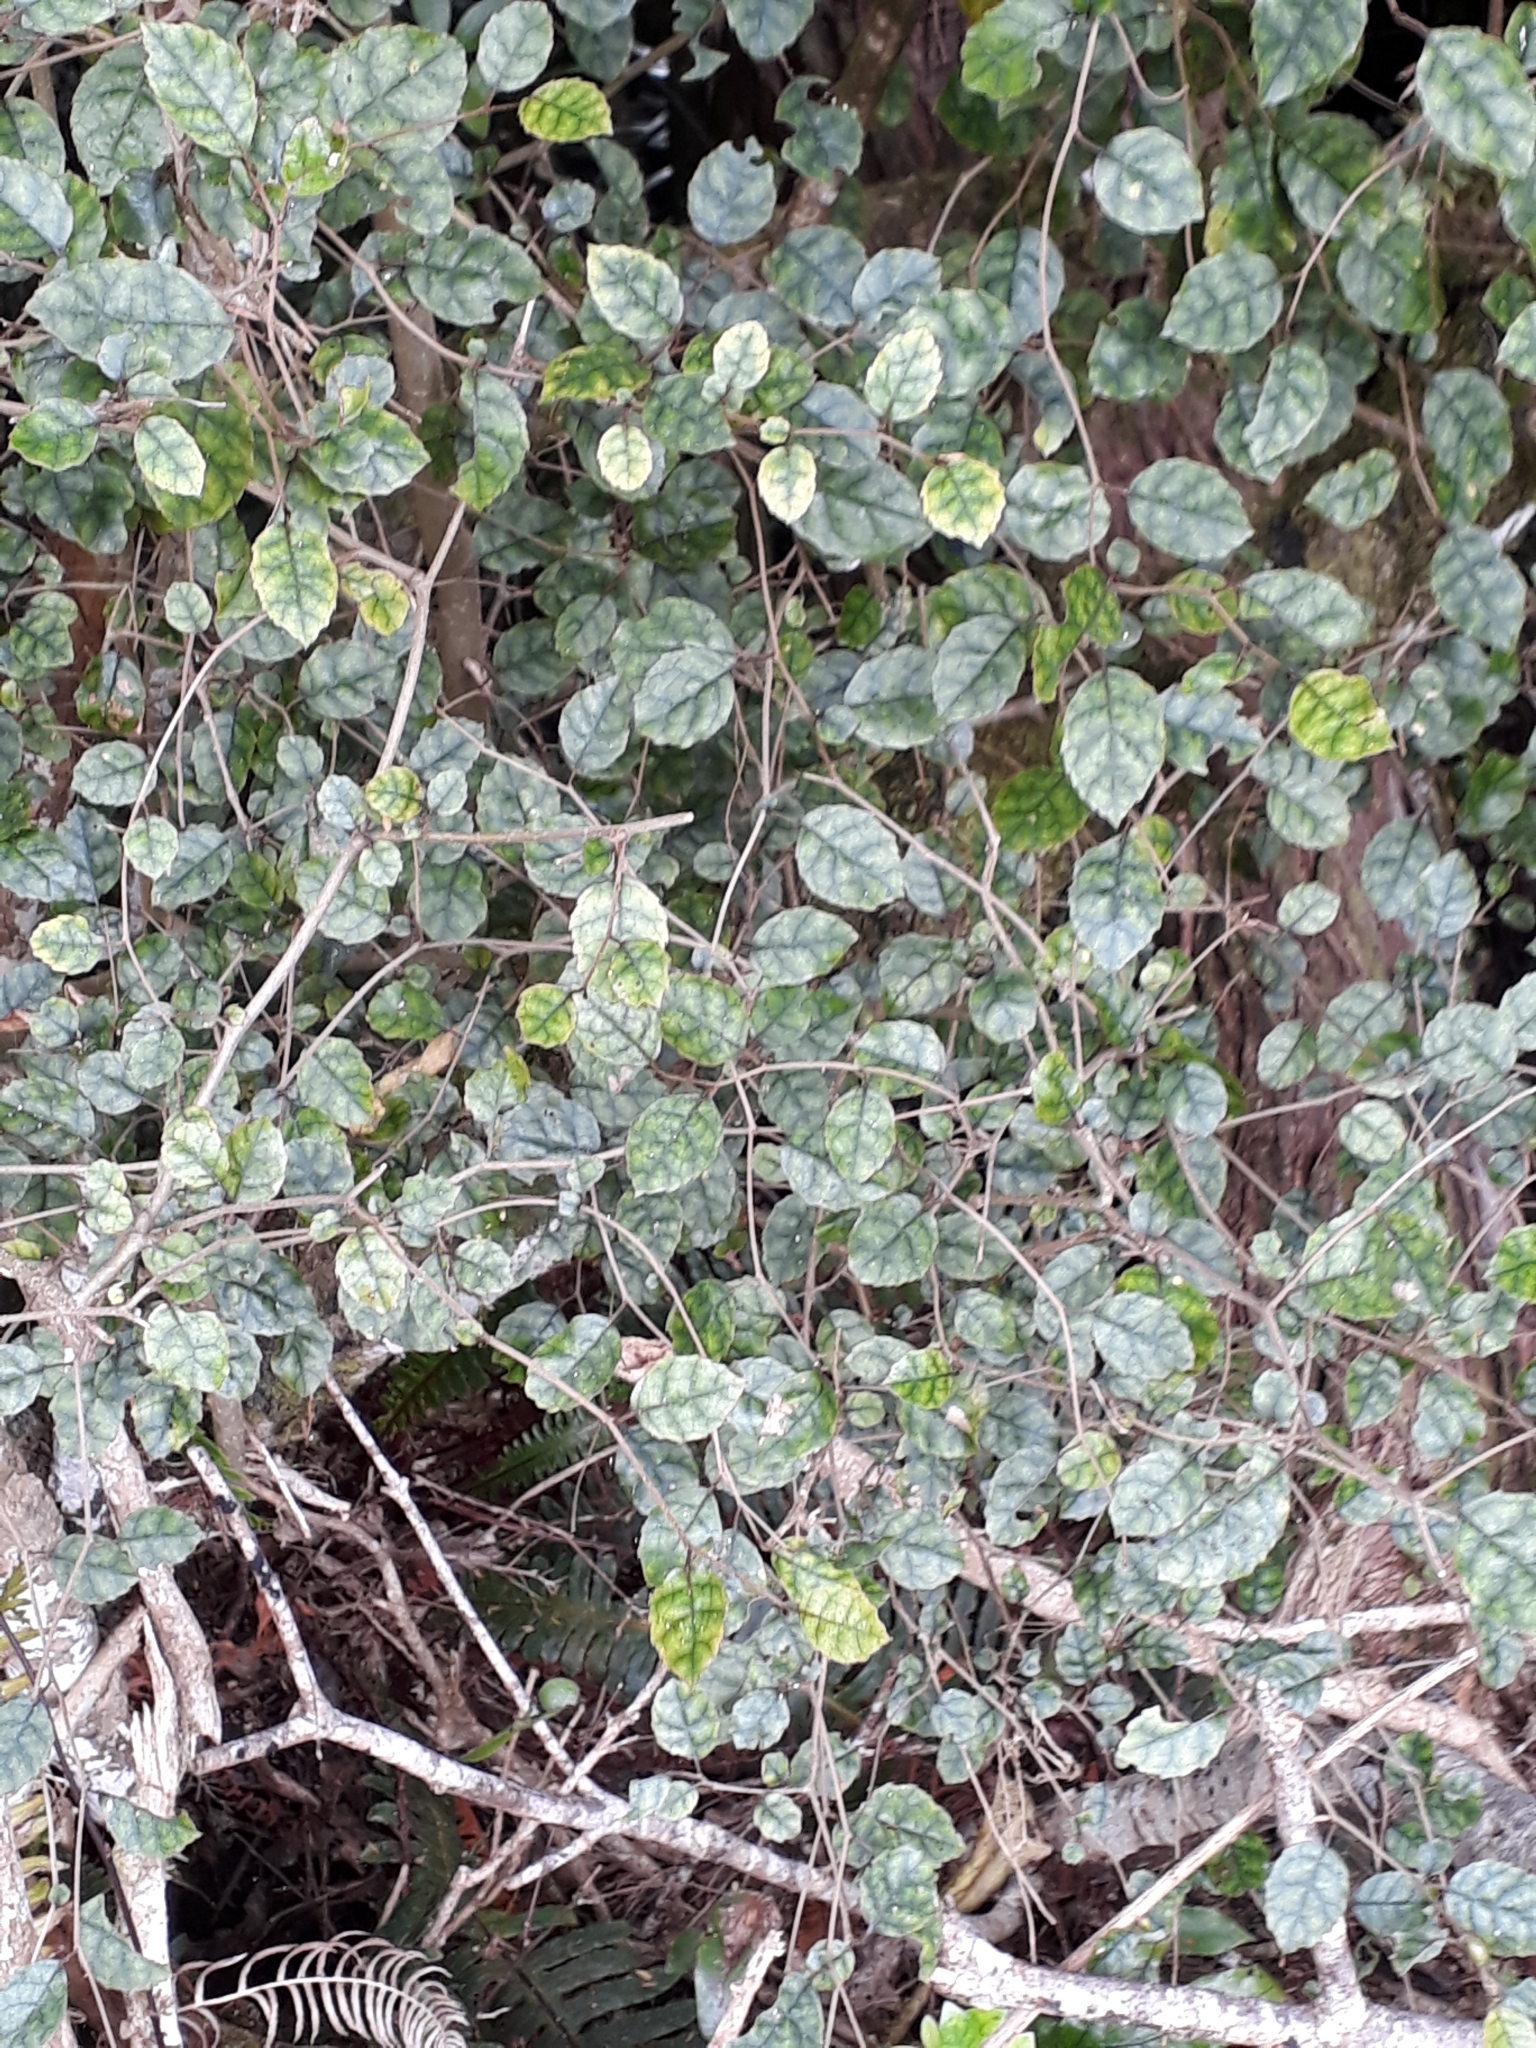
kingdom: Plantae
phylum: Tracheophyta
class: Magnoliopsida
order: Asterales
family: Rousseaceae
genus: Carpodetus
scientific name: Carpodetus serratus
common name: White mapau
